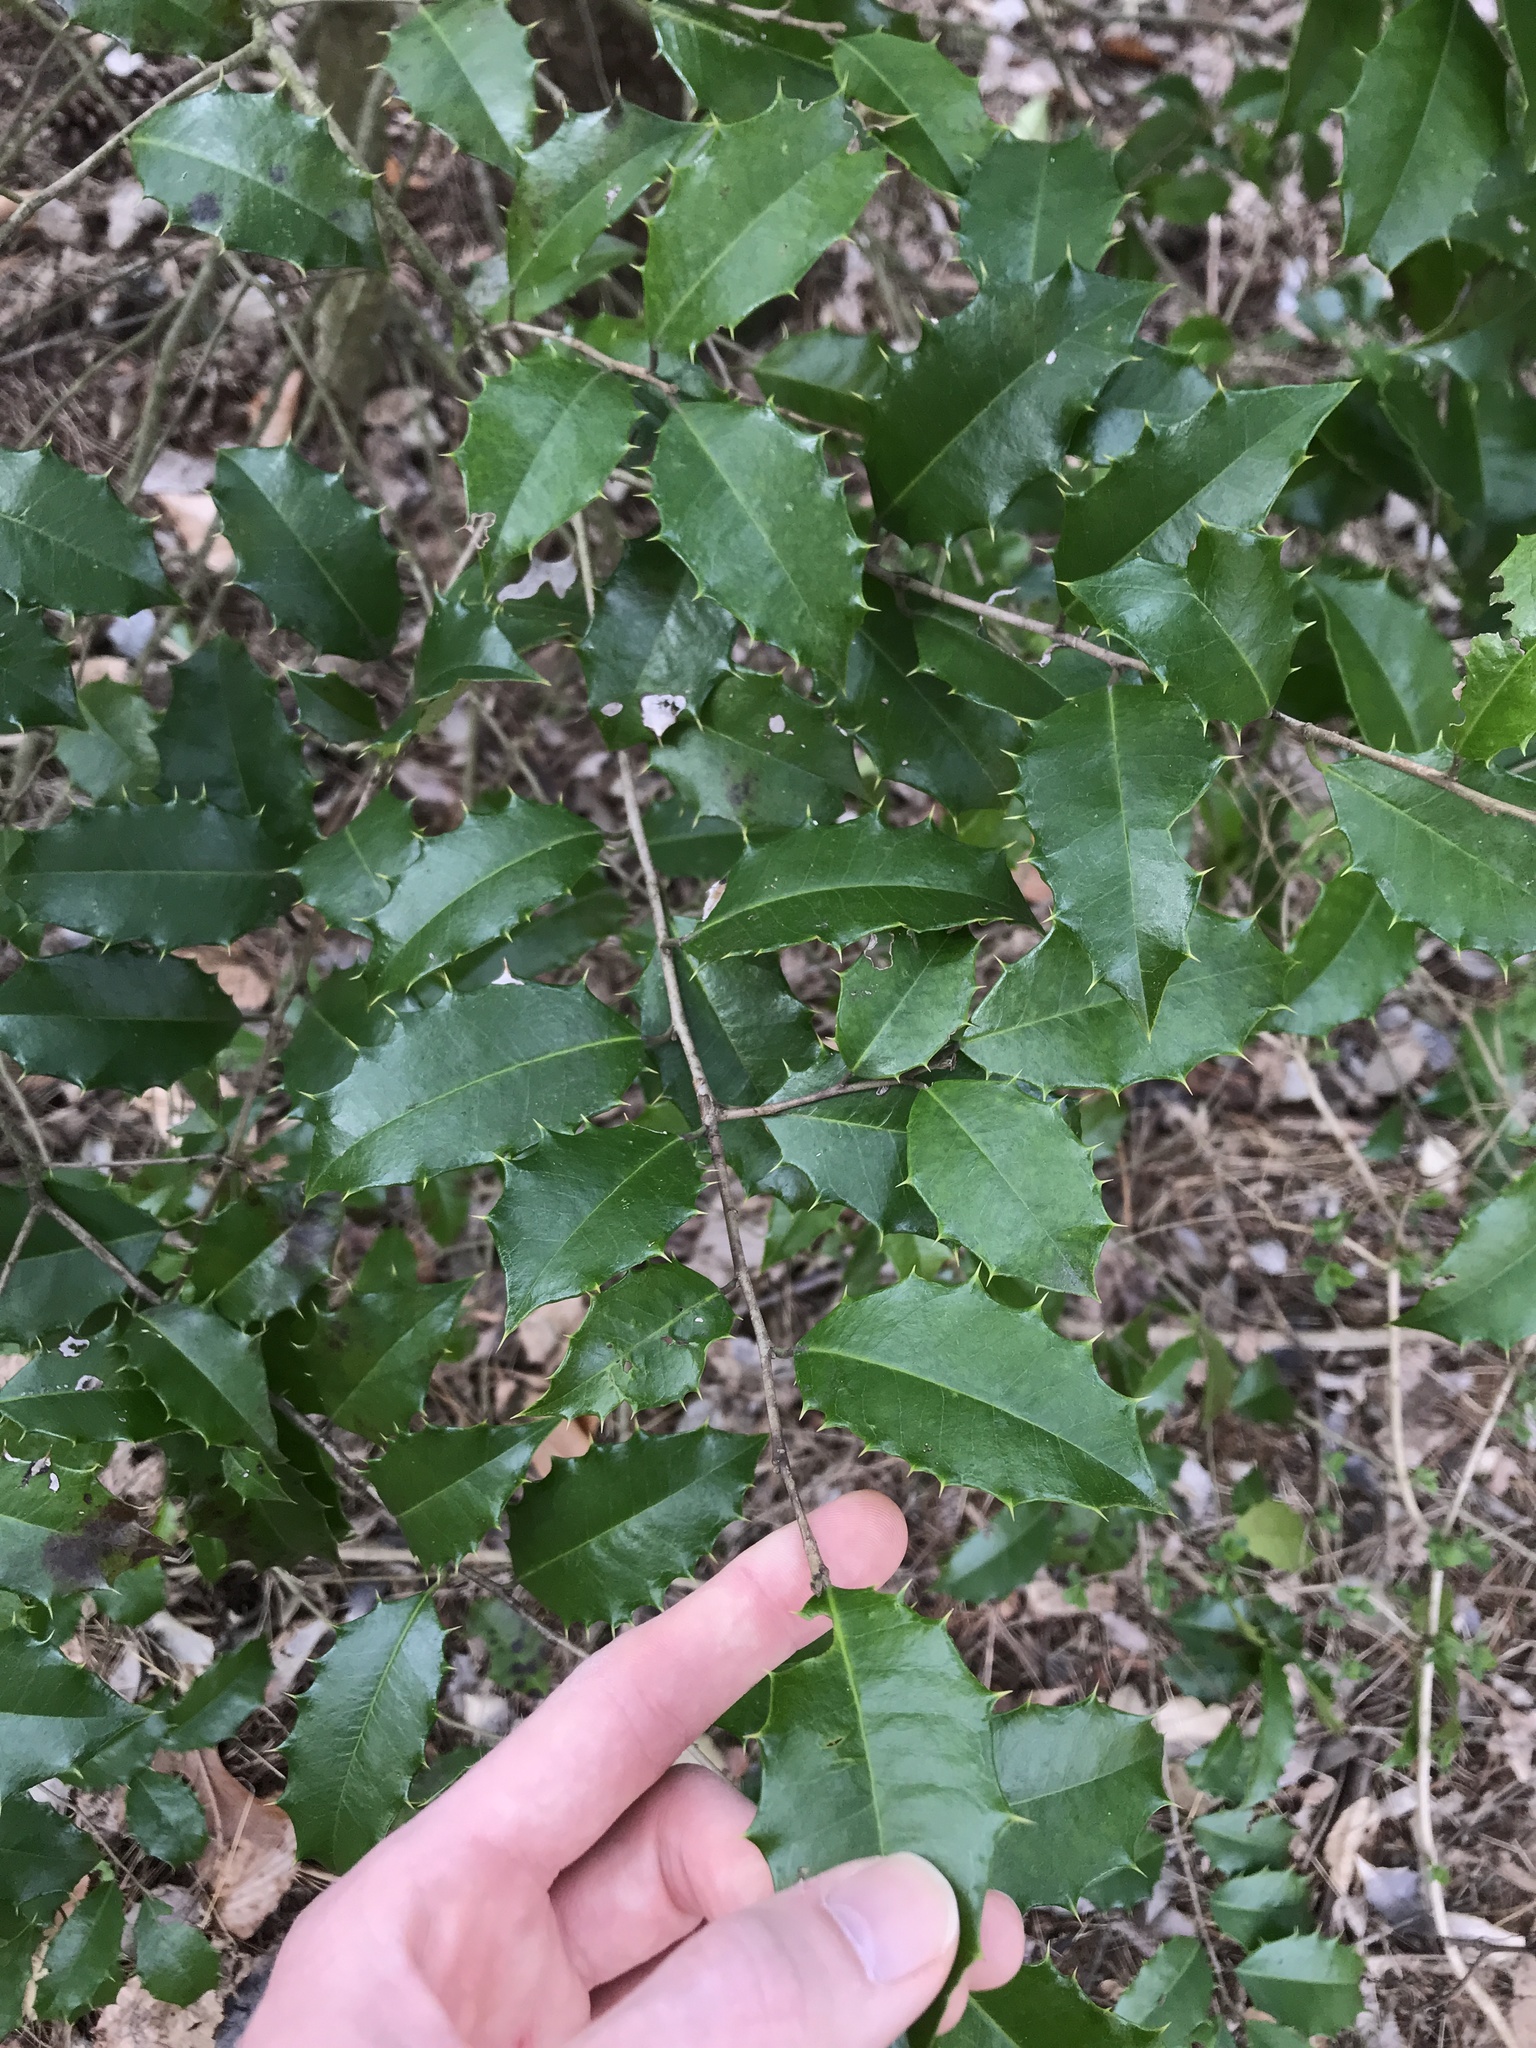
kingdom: Plantae
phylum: Tracheophyta
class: Magnoliopsida
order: Aquifoliales
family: Aquifoliaceae
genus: Ilex
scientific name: Ilex opaca
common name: American holly
